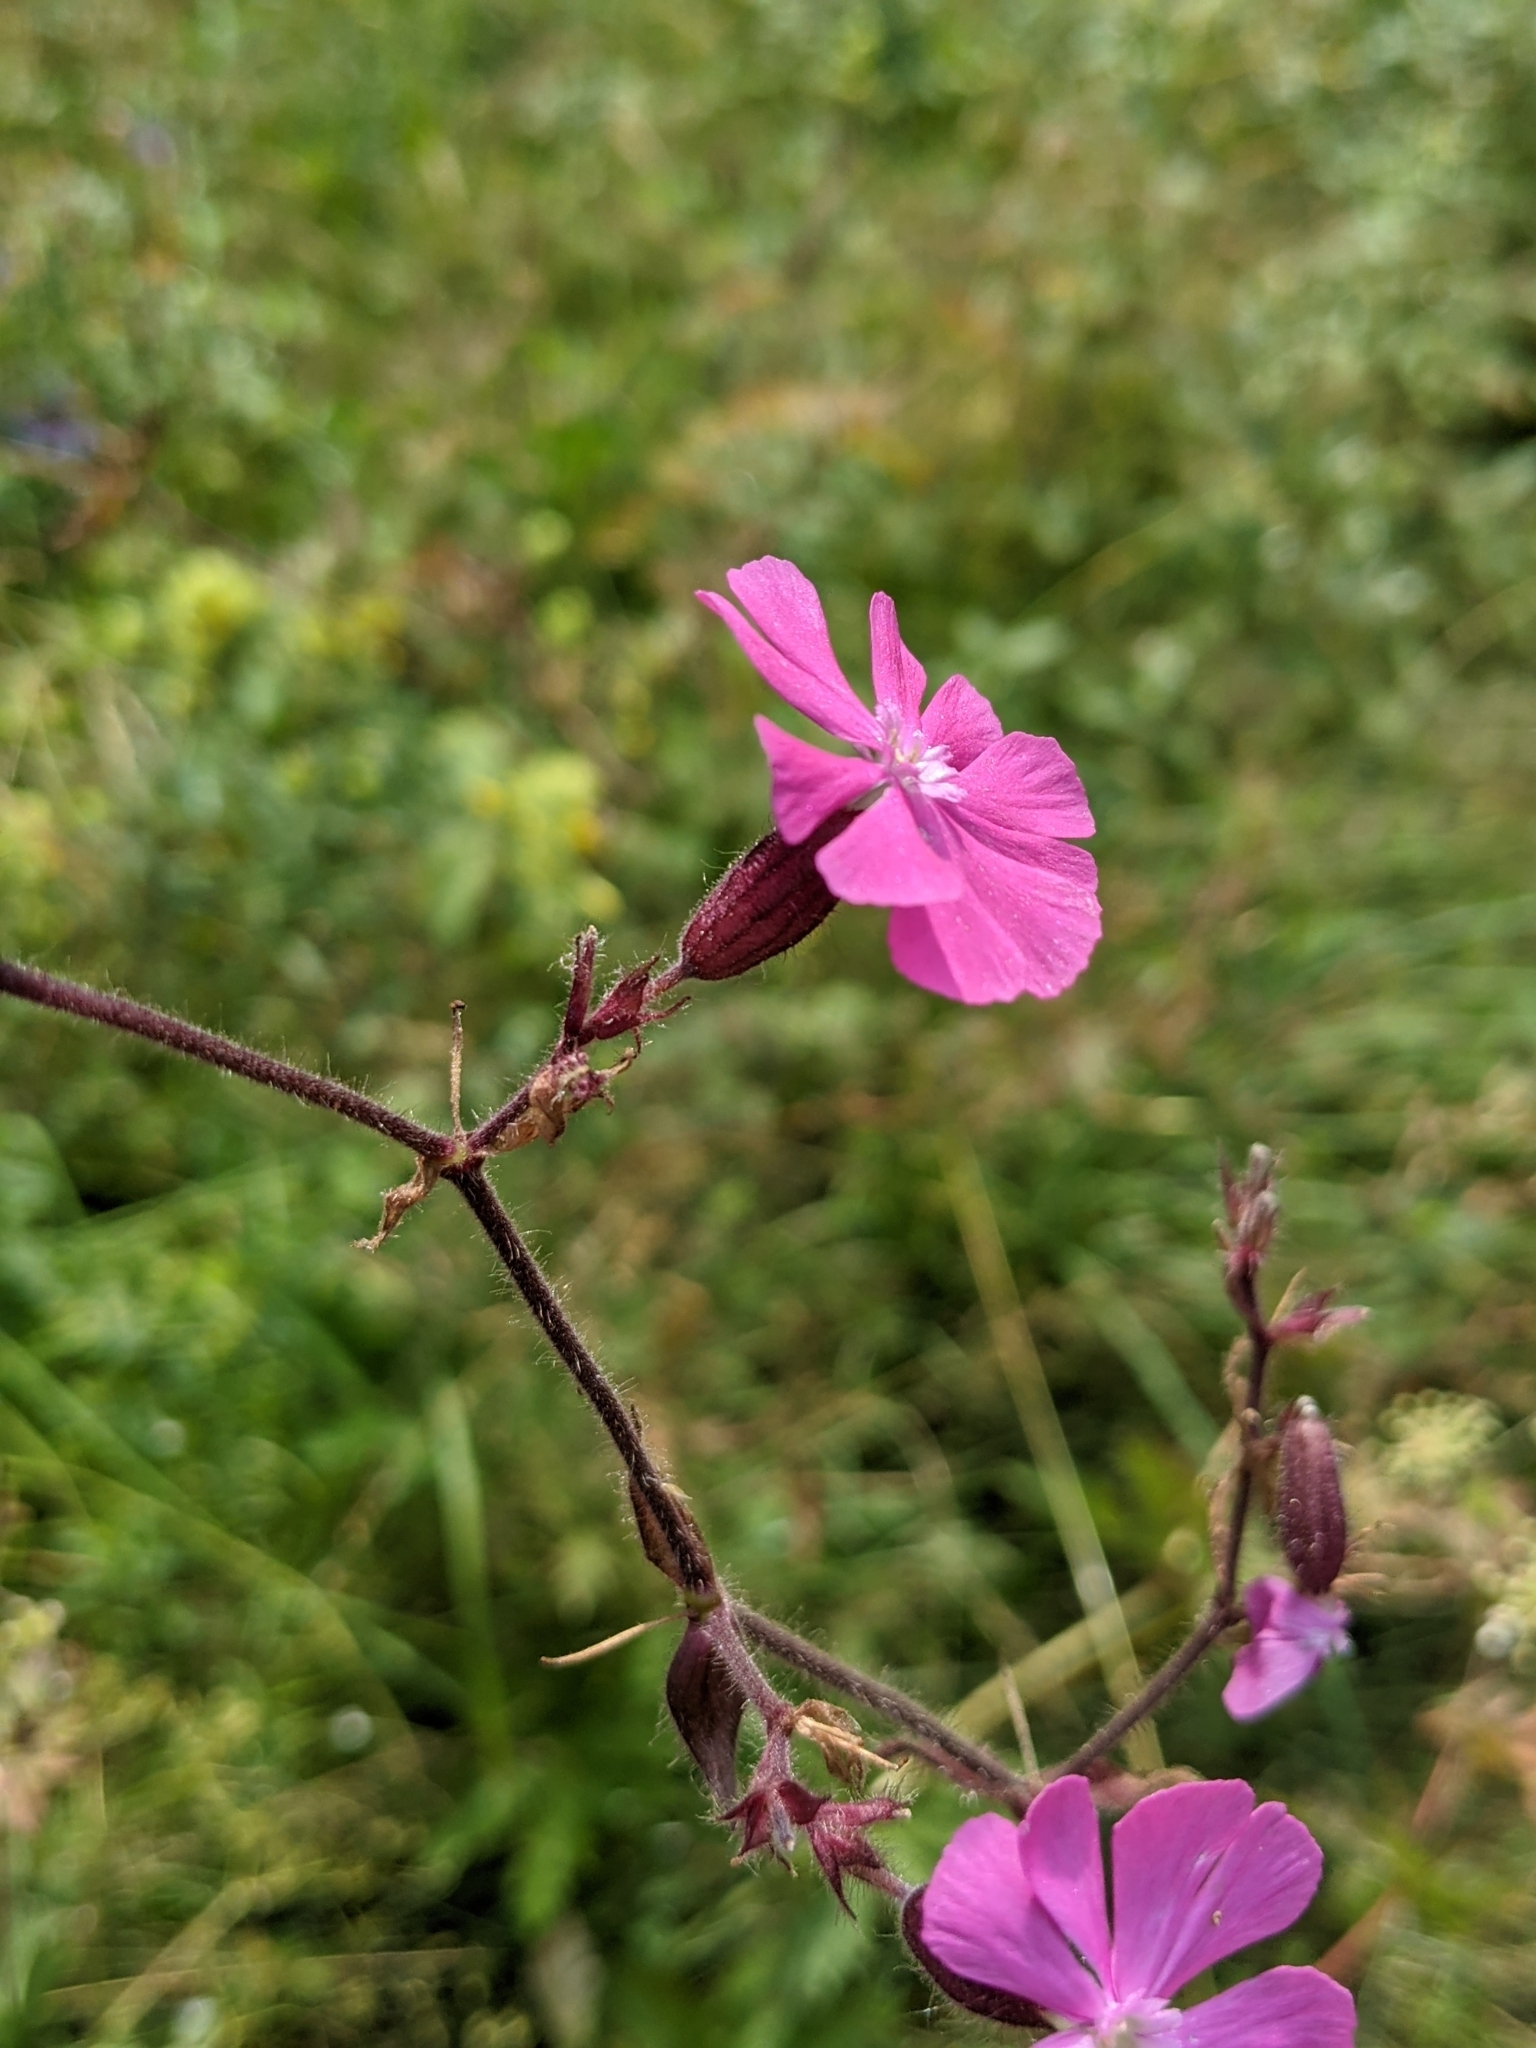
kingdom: Plantae
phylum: Tracheophyta
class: Magnoliopsida
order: Caryophyllales
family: Caryophyllaceae
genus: Silene
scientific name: Silene dioica
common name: Red campion
